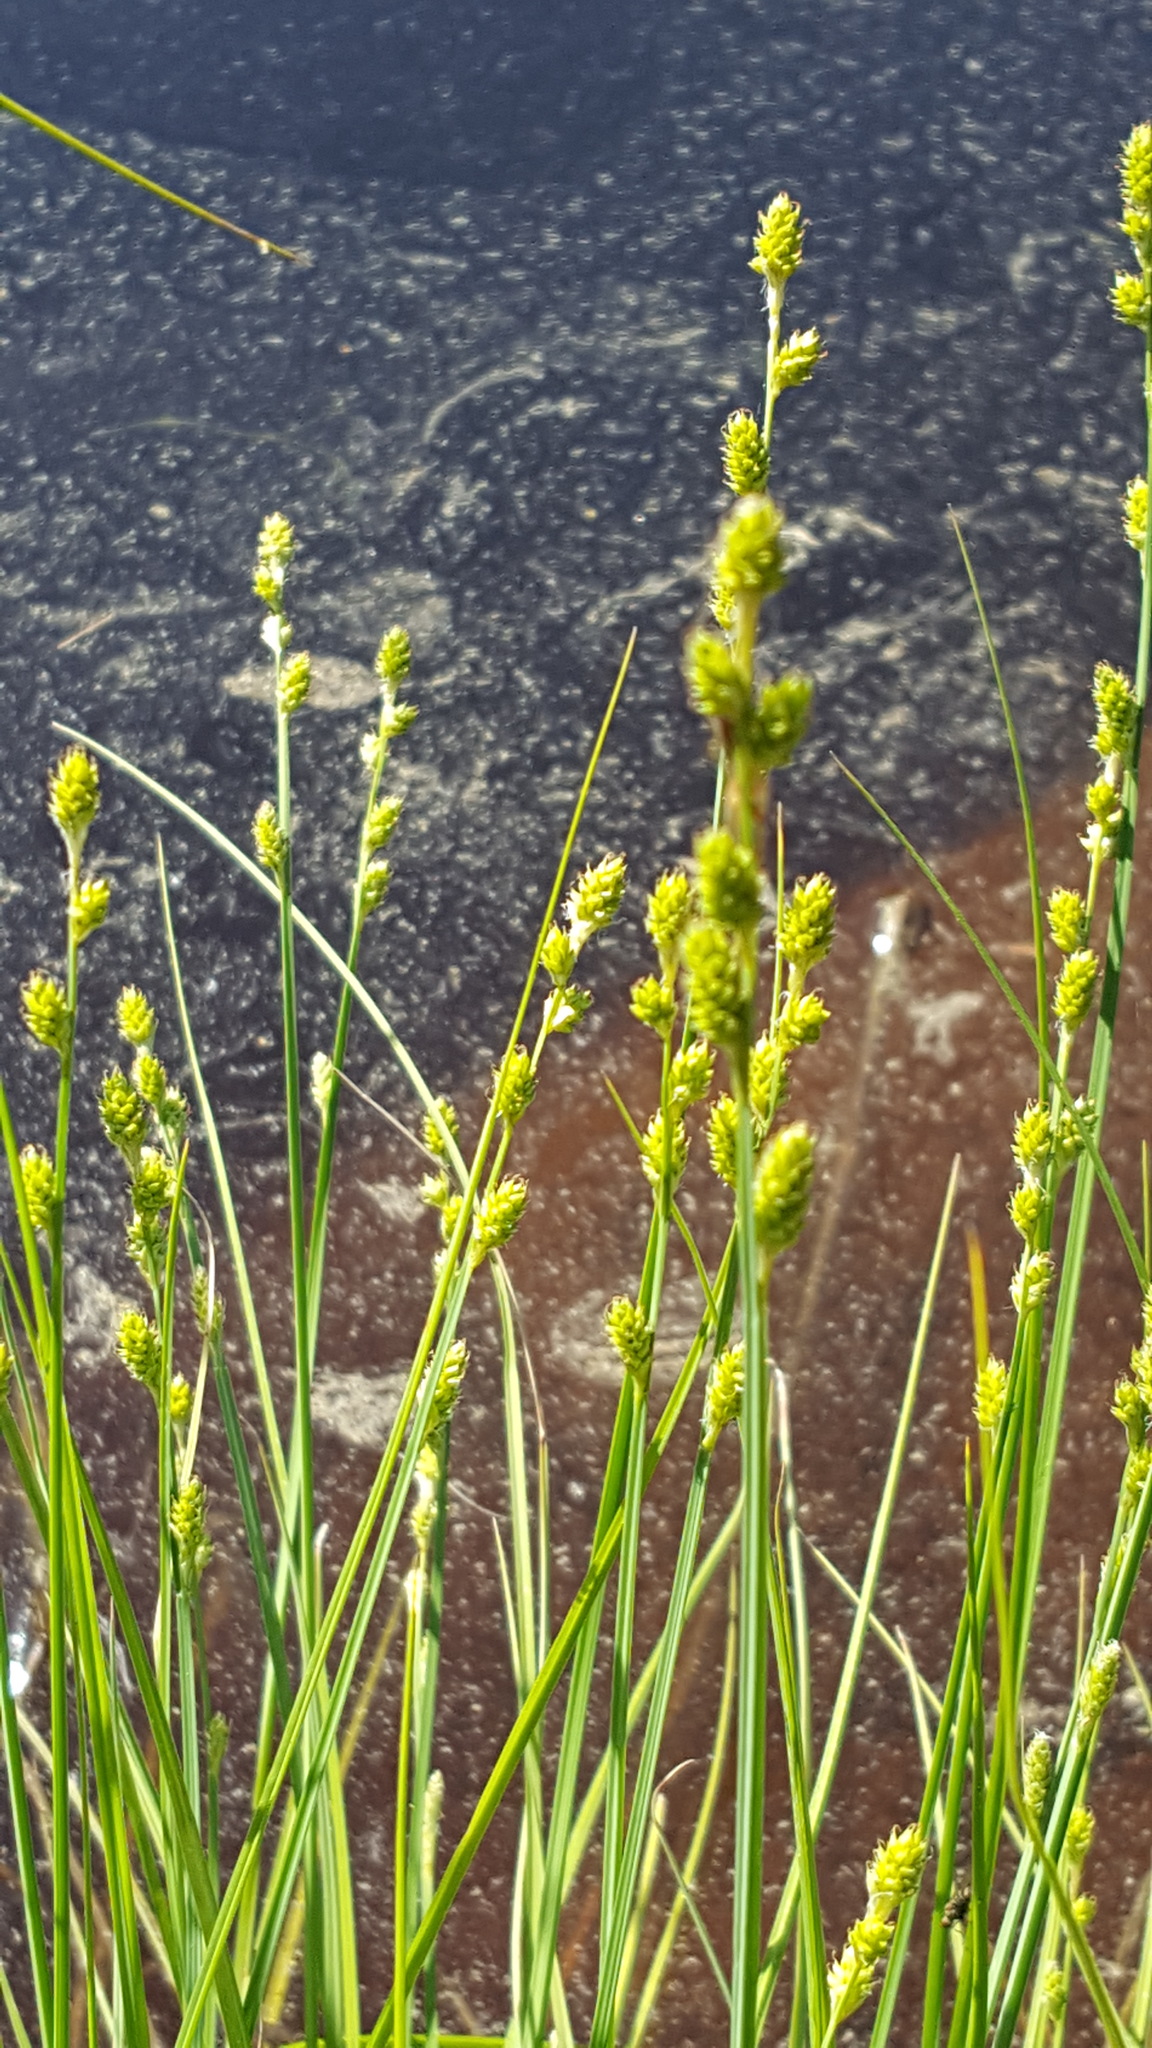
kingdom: Plantae
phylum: Tracheophyta
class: Liliopsida
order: Poales
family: Cyperaceae
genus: Carex
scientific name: Carex canescens
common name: White sedge
